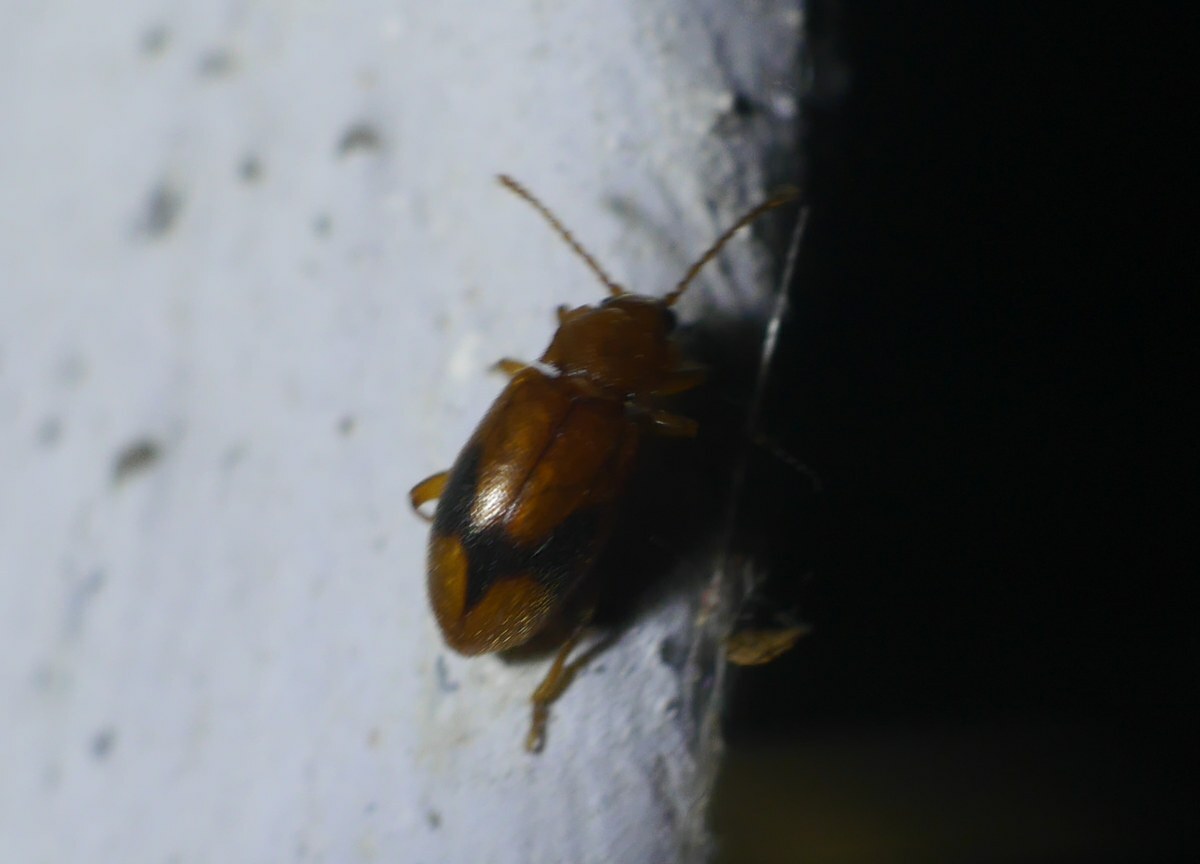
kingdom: Animalia
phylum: Arthropoda
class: Insecta
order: Coleoptera
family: Endomychidae
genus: Dapsa
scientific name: Dapsa trimaculata
